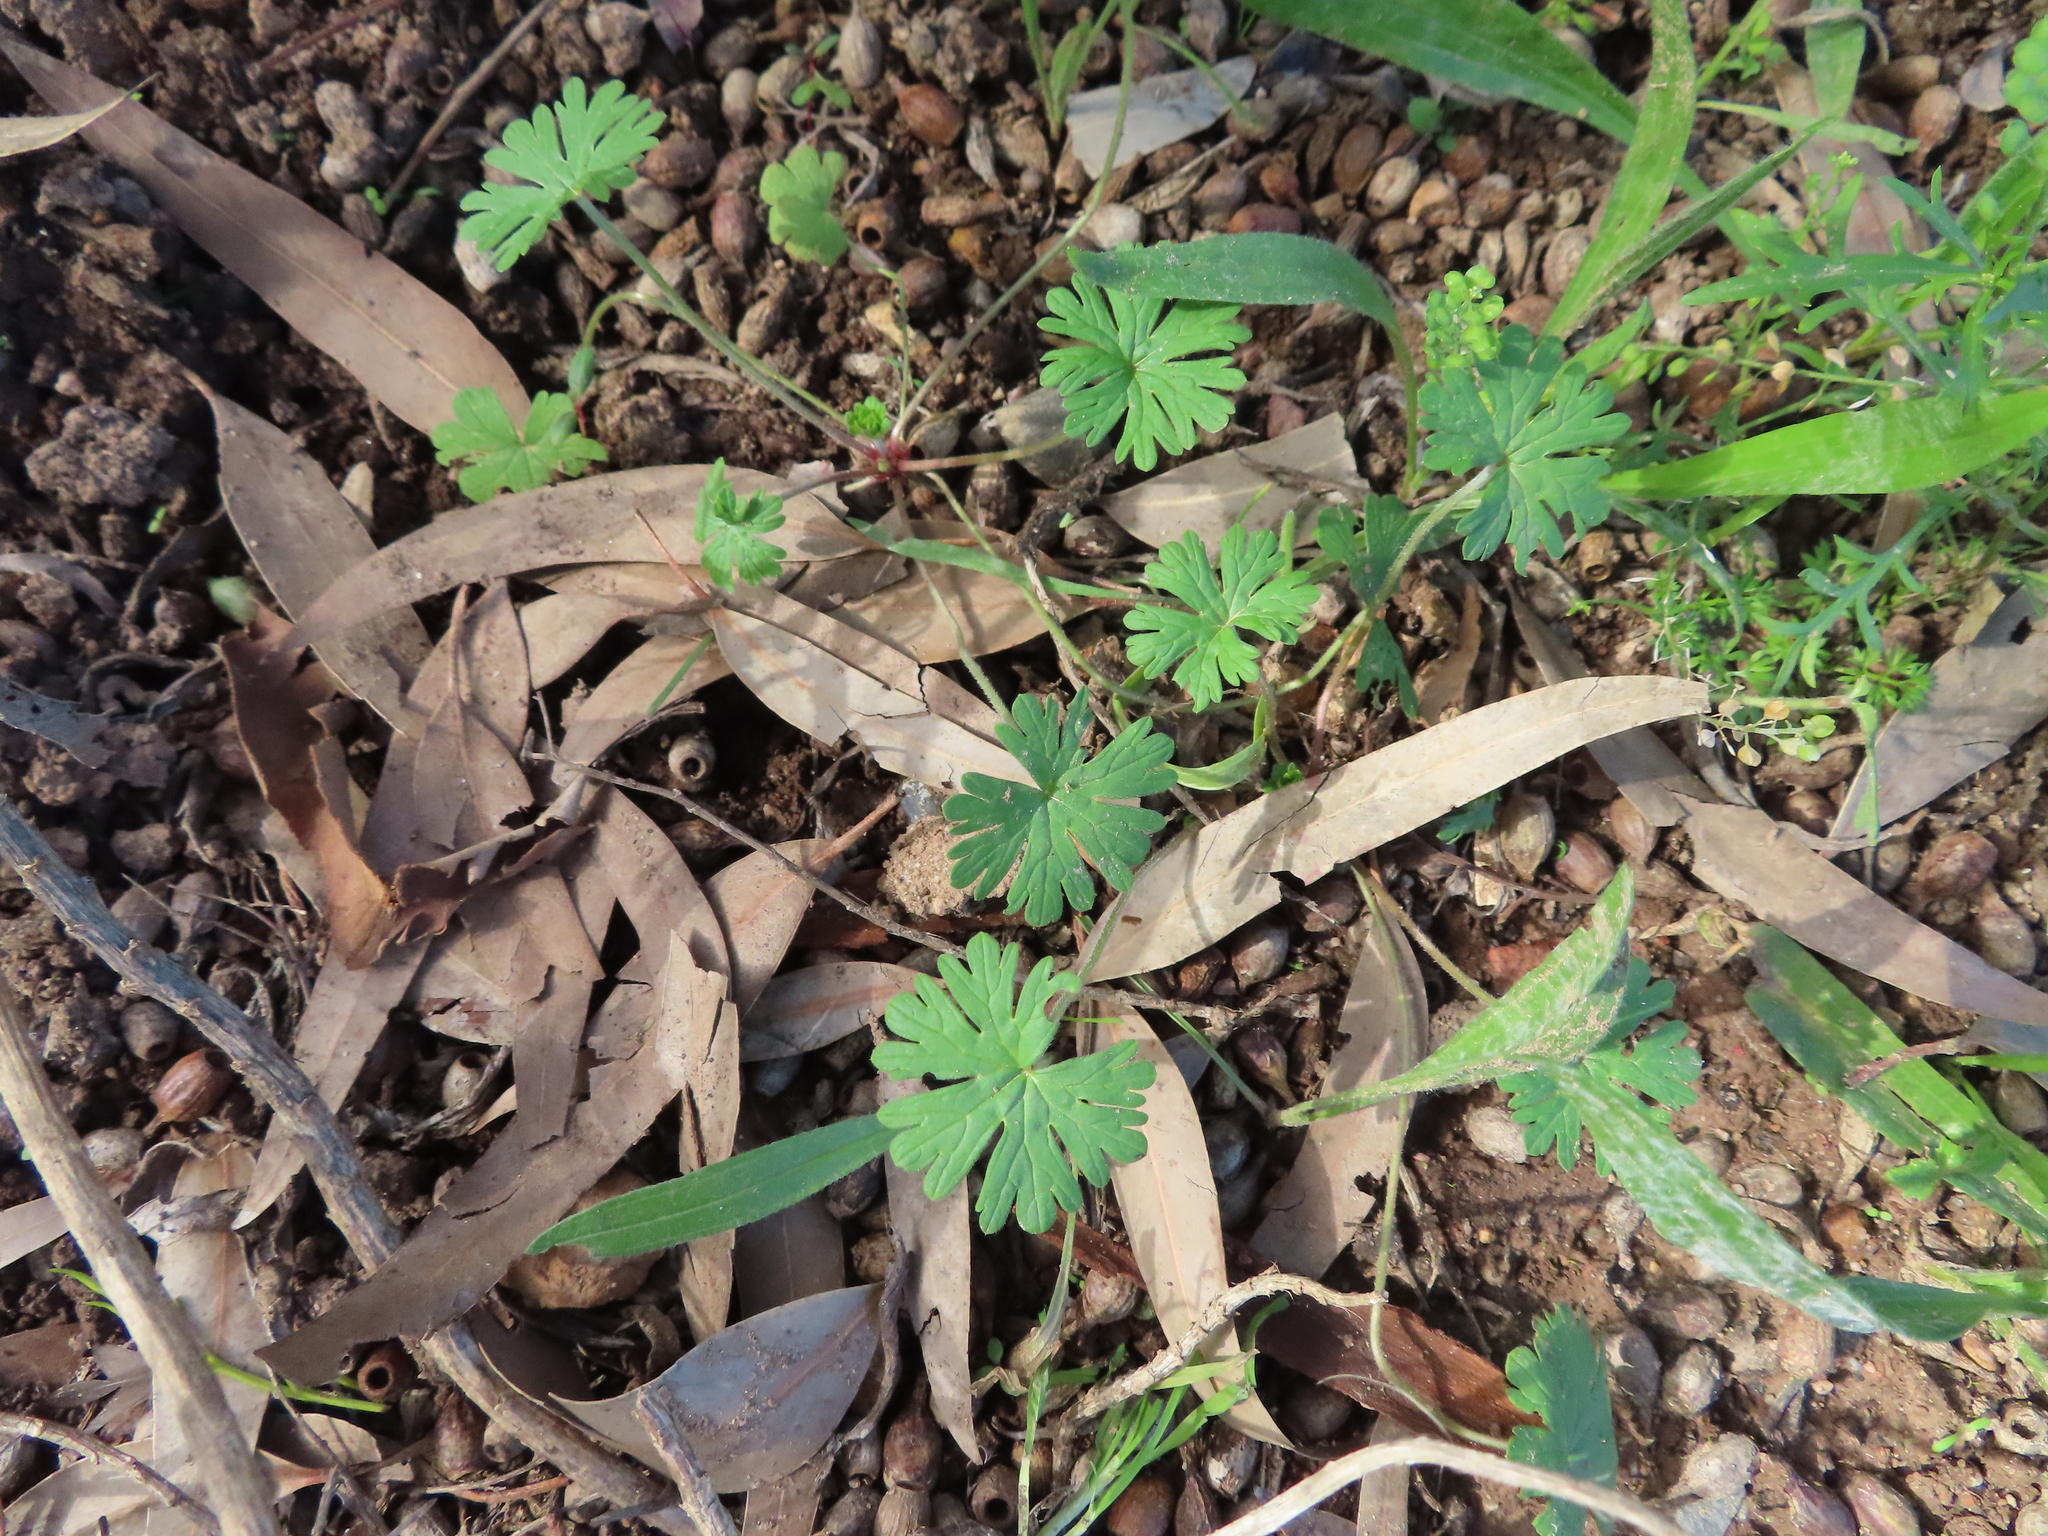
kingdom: Plantae
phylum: Tracheophyta
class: Magnoliopsida
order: Geraniales
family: Geraniaceae
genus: Geranium
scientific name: Geranium molle
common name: Dove's-foot crane's-bill
